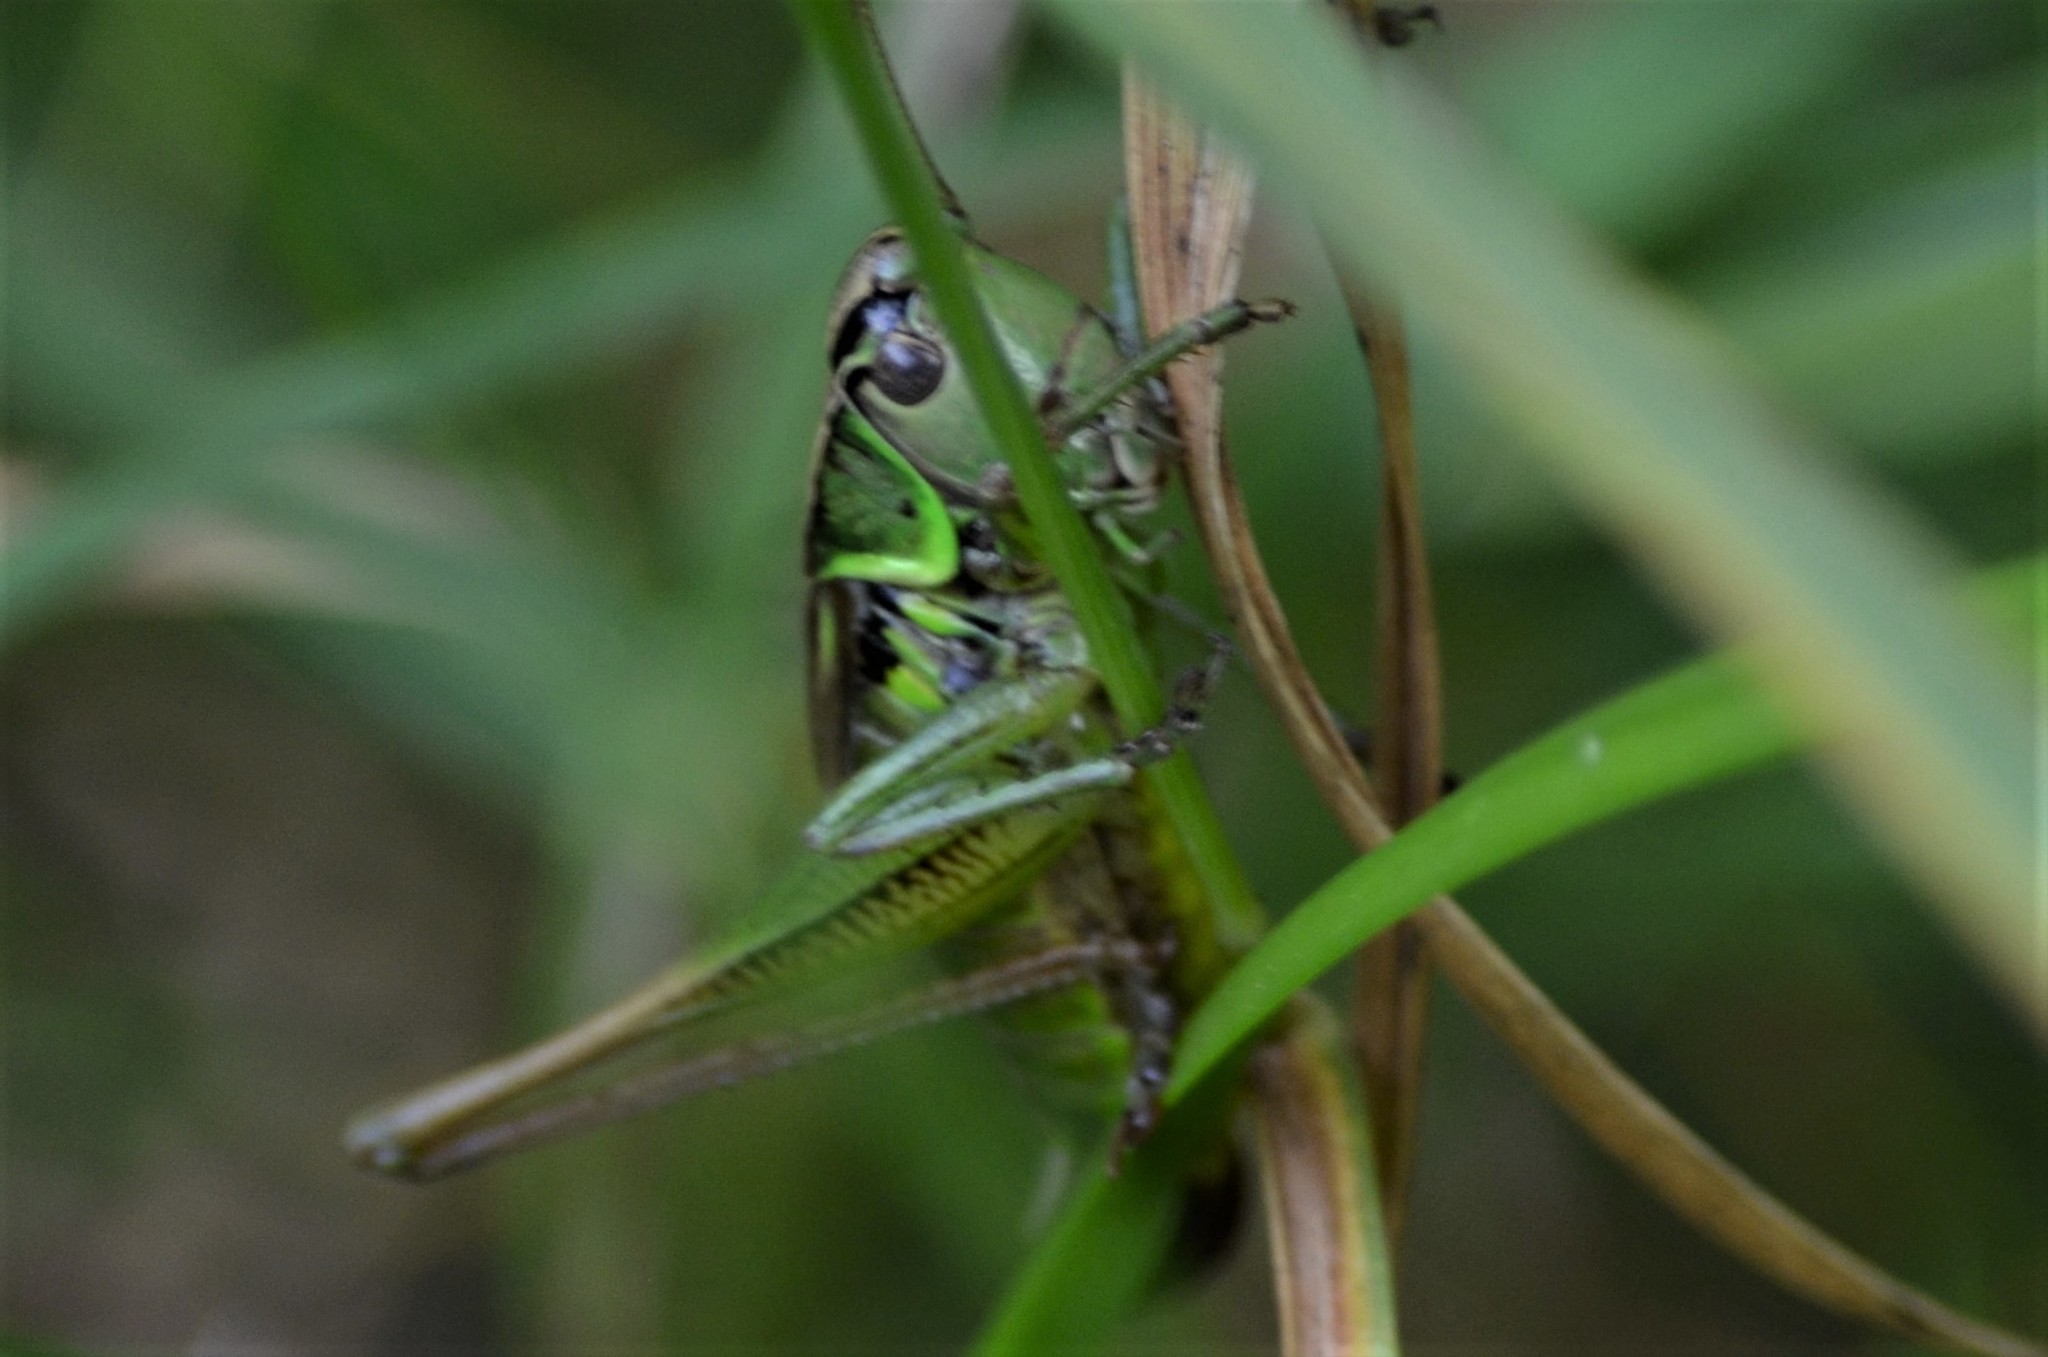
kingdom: Animalia
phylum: Arthropoda
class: Insecta
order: Orthoptera
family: Tettigoniidae
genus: Roeseliana
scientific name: Roeseliana roeselii
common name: Roesel's bush cricket
